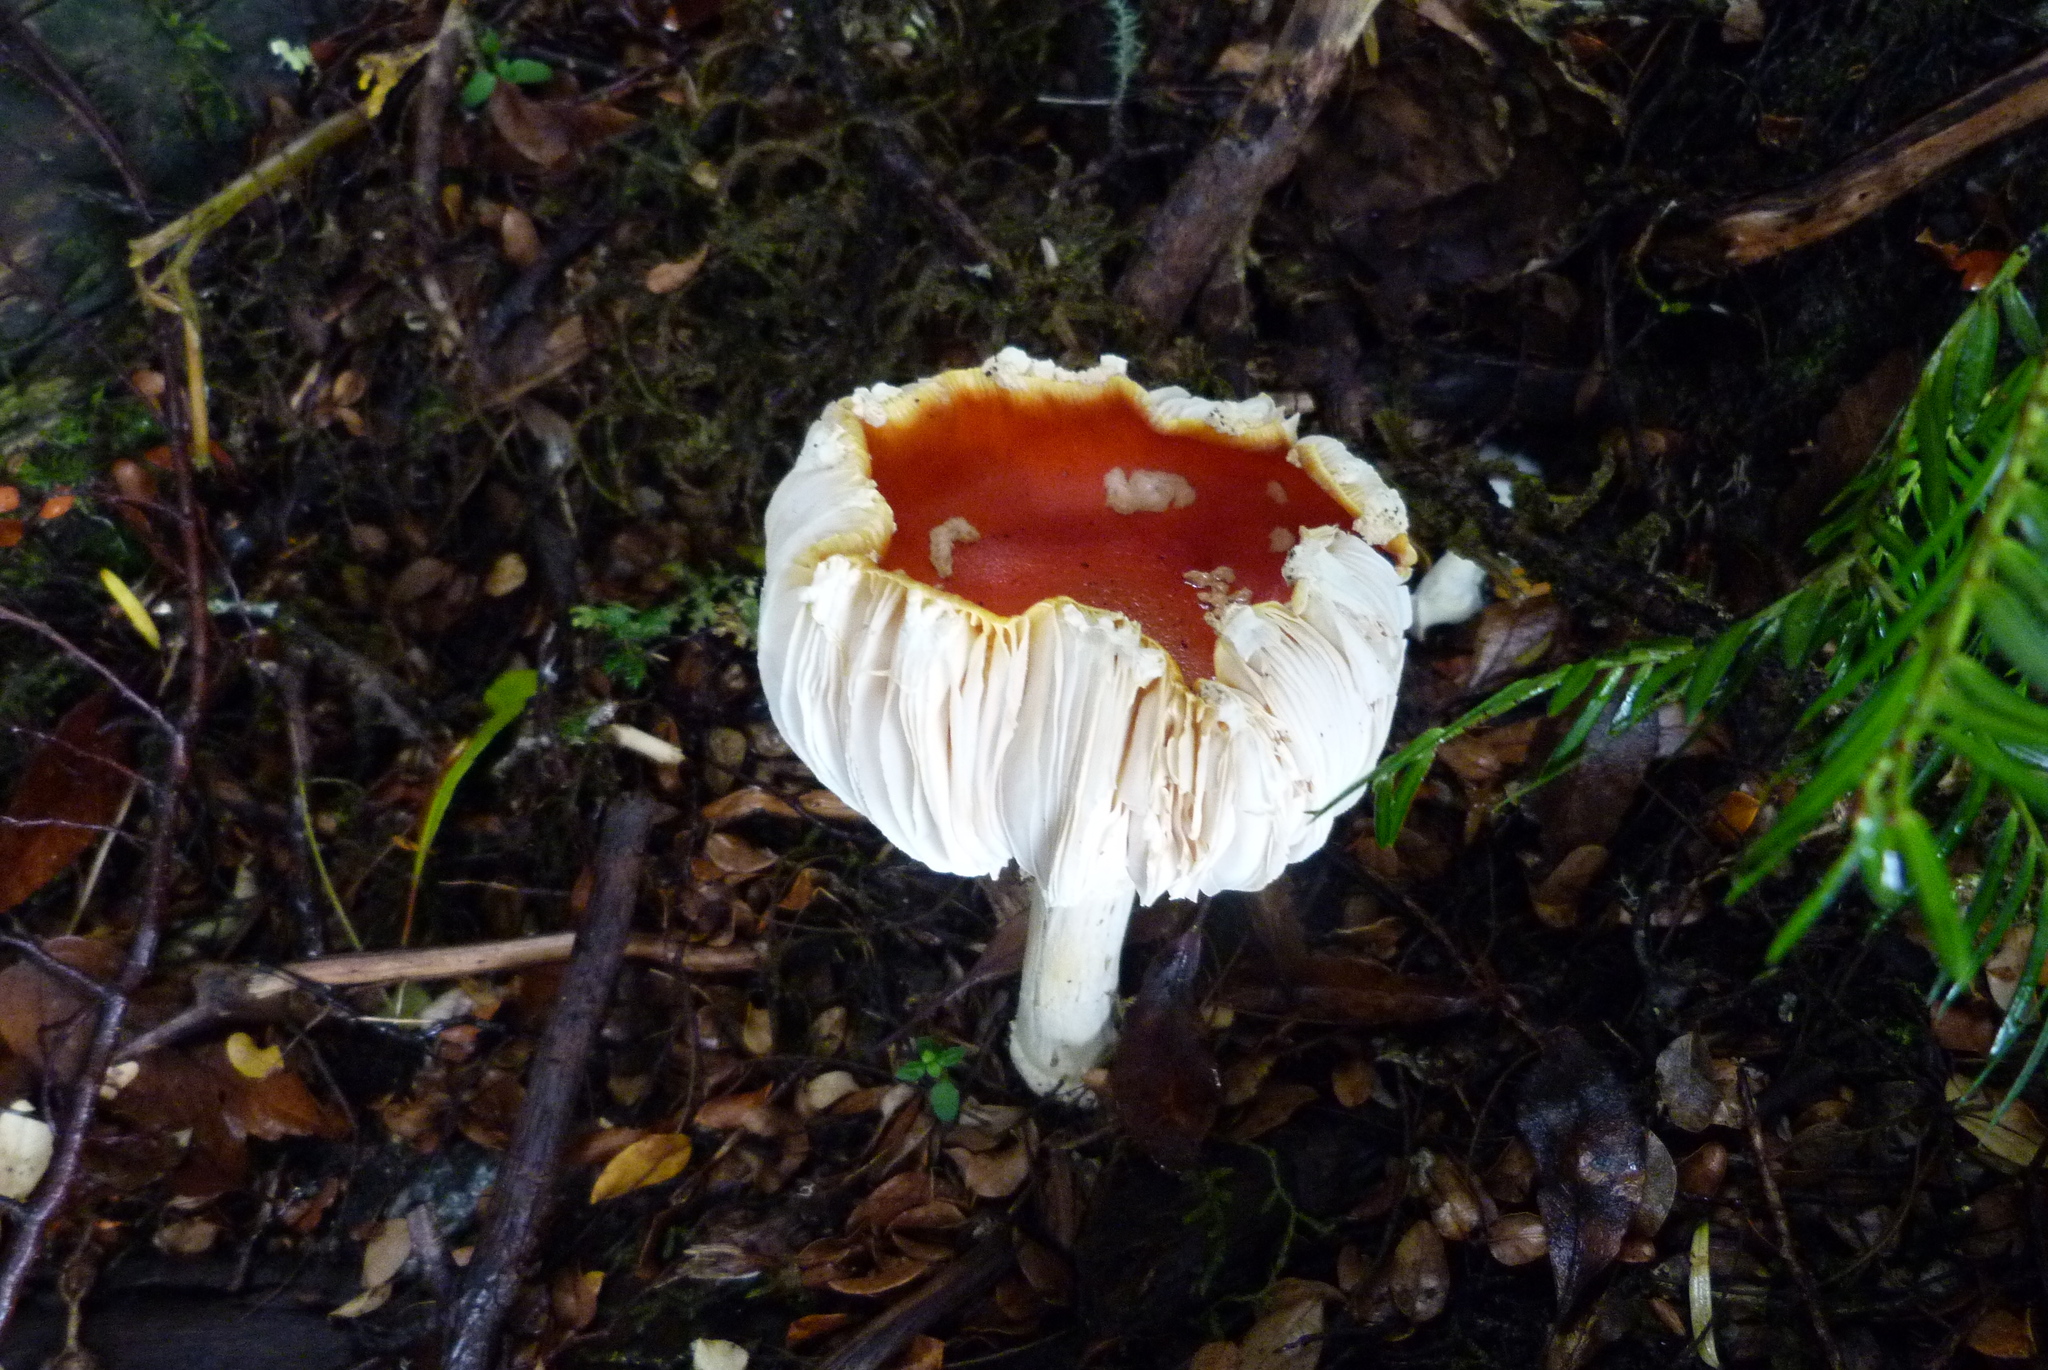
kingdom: Fungi
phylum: Basidiomycota
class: Agaricomycetes
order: Agaricales
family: Amanitaceae
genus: Amanita
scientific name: Amanita muscaria
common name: Fly agaric
